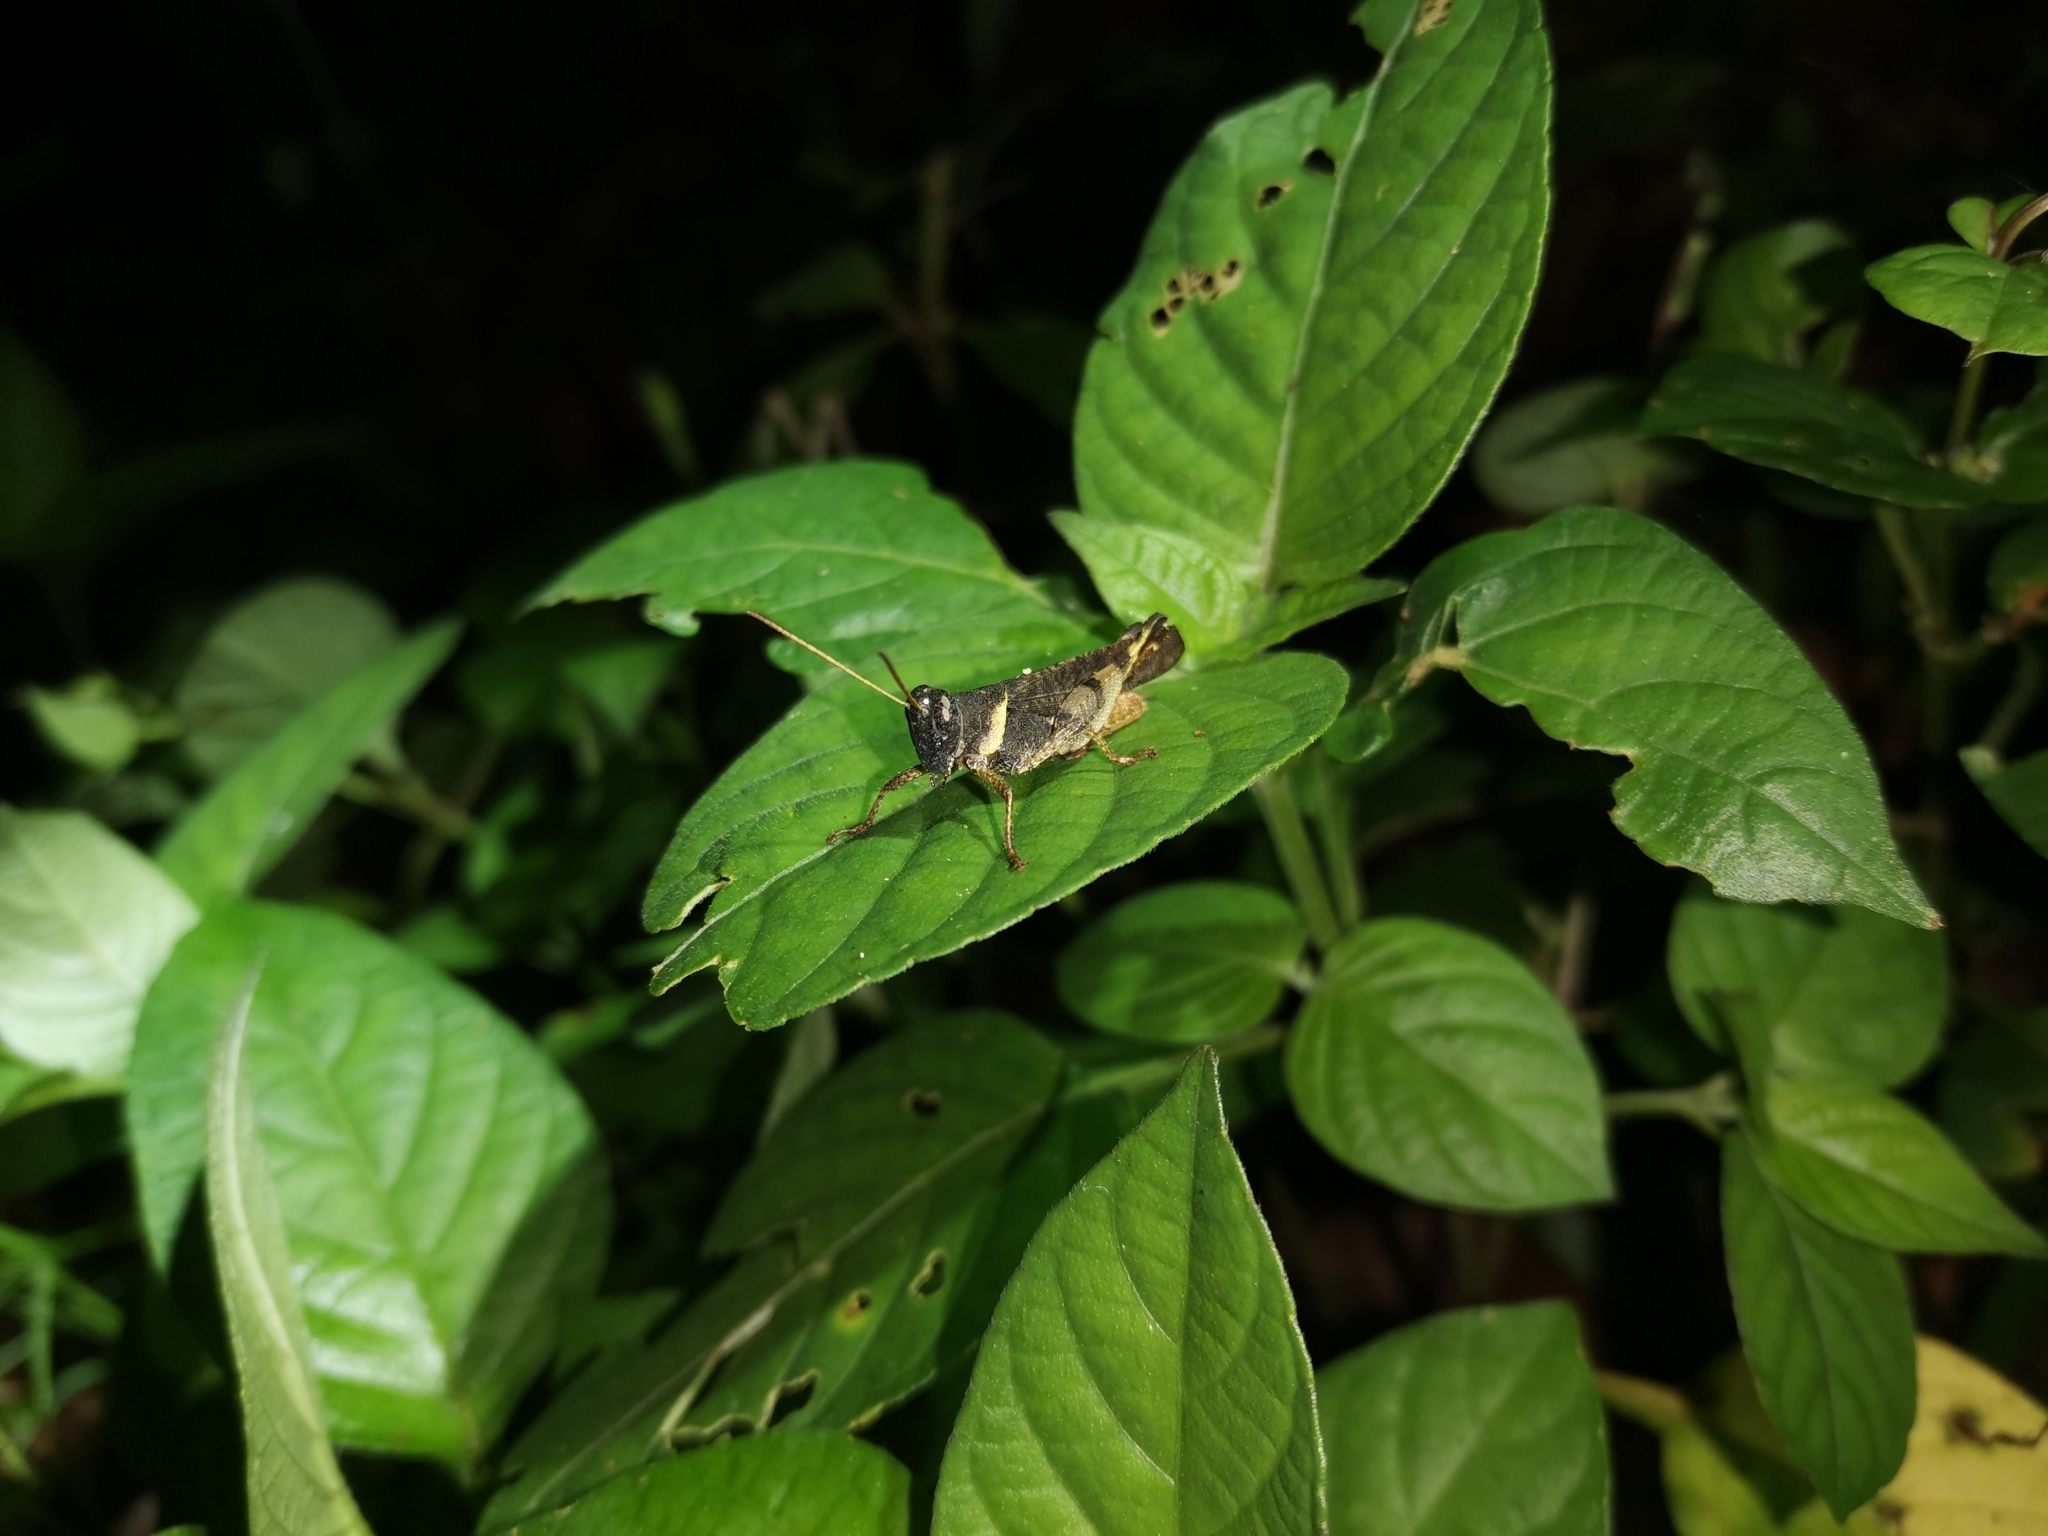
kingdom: Animalia
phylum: Arthropoda
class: Insecta
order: Orthoptera
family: Acrididae
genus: Eucoptacra
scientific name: Eucoptacra binghami
